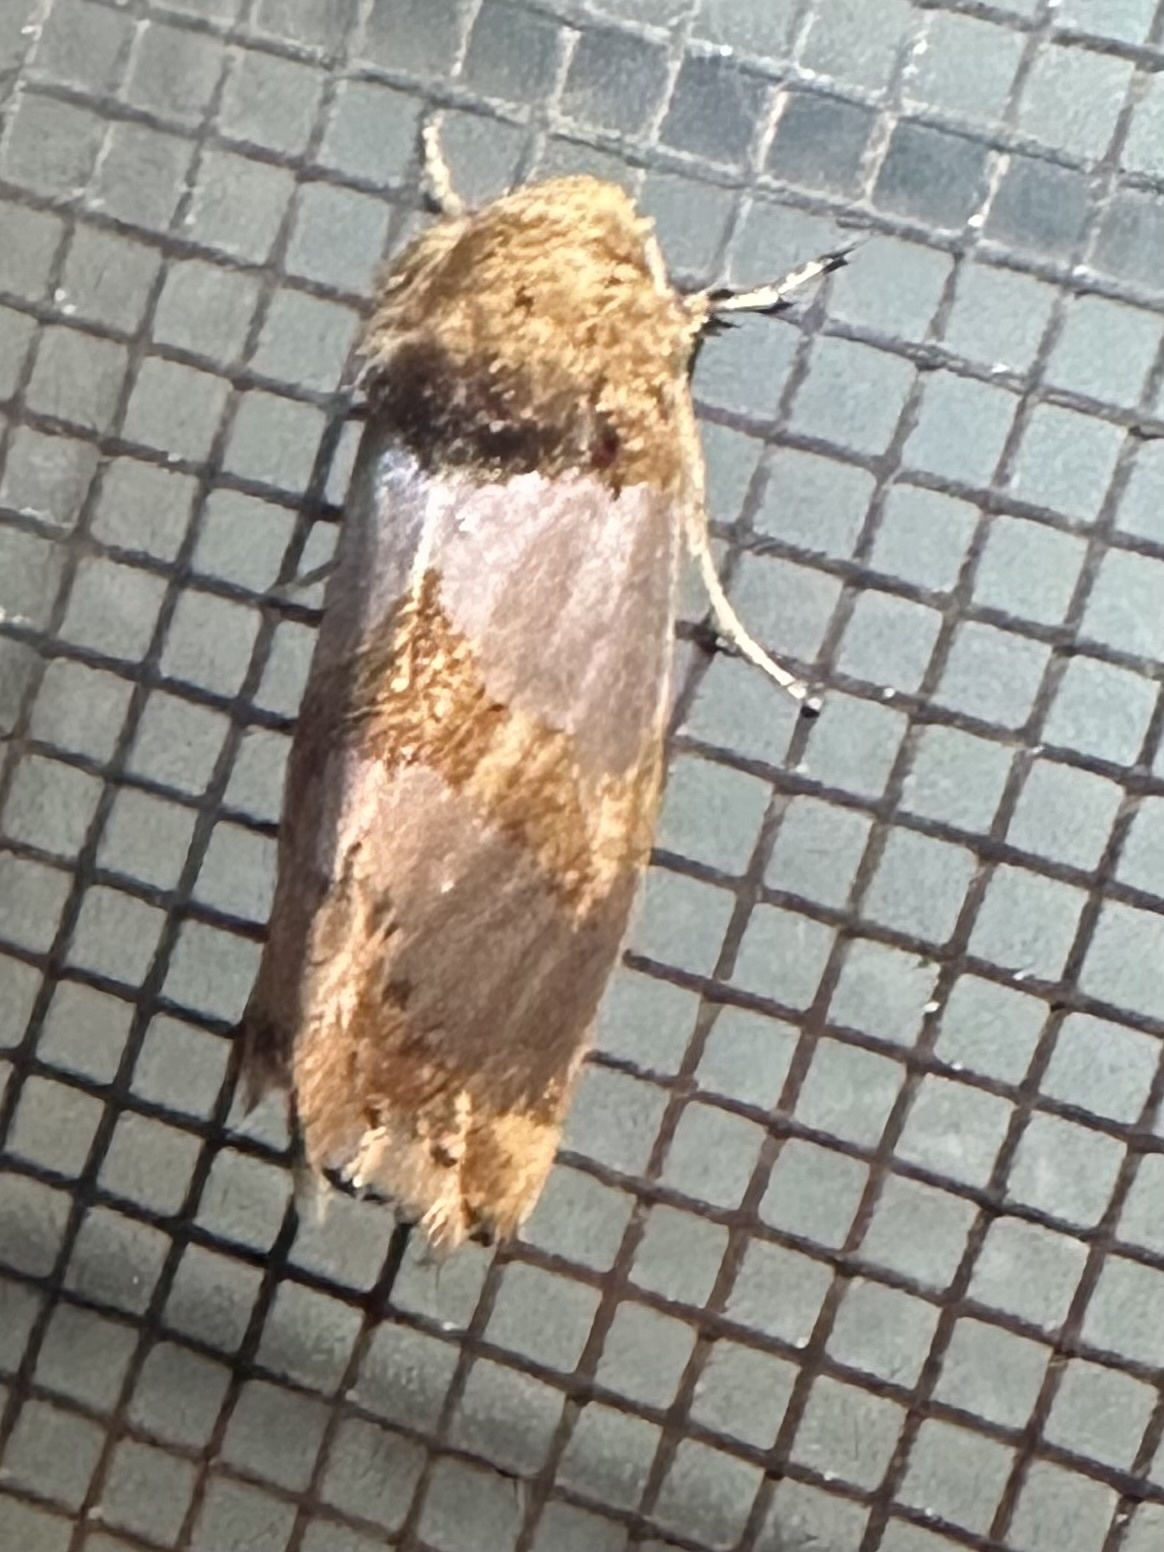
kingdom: Animalia
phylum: Arthropoda
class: Insecta
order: Lepidoptera
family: Noctuidae
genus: Schinia
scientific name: Schinia chrysellus
